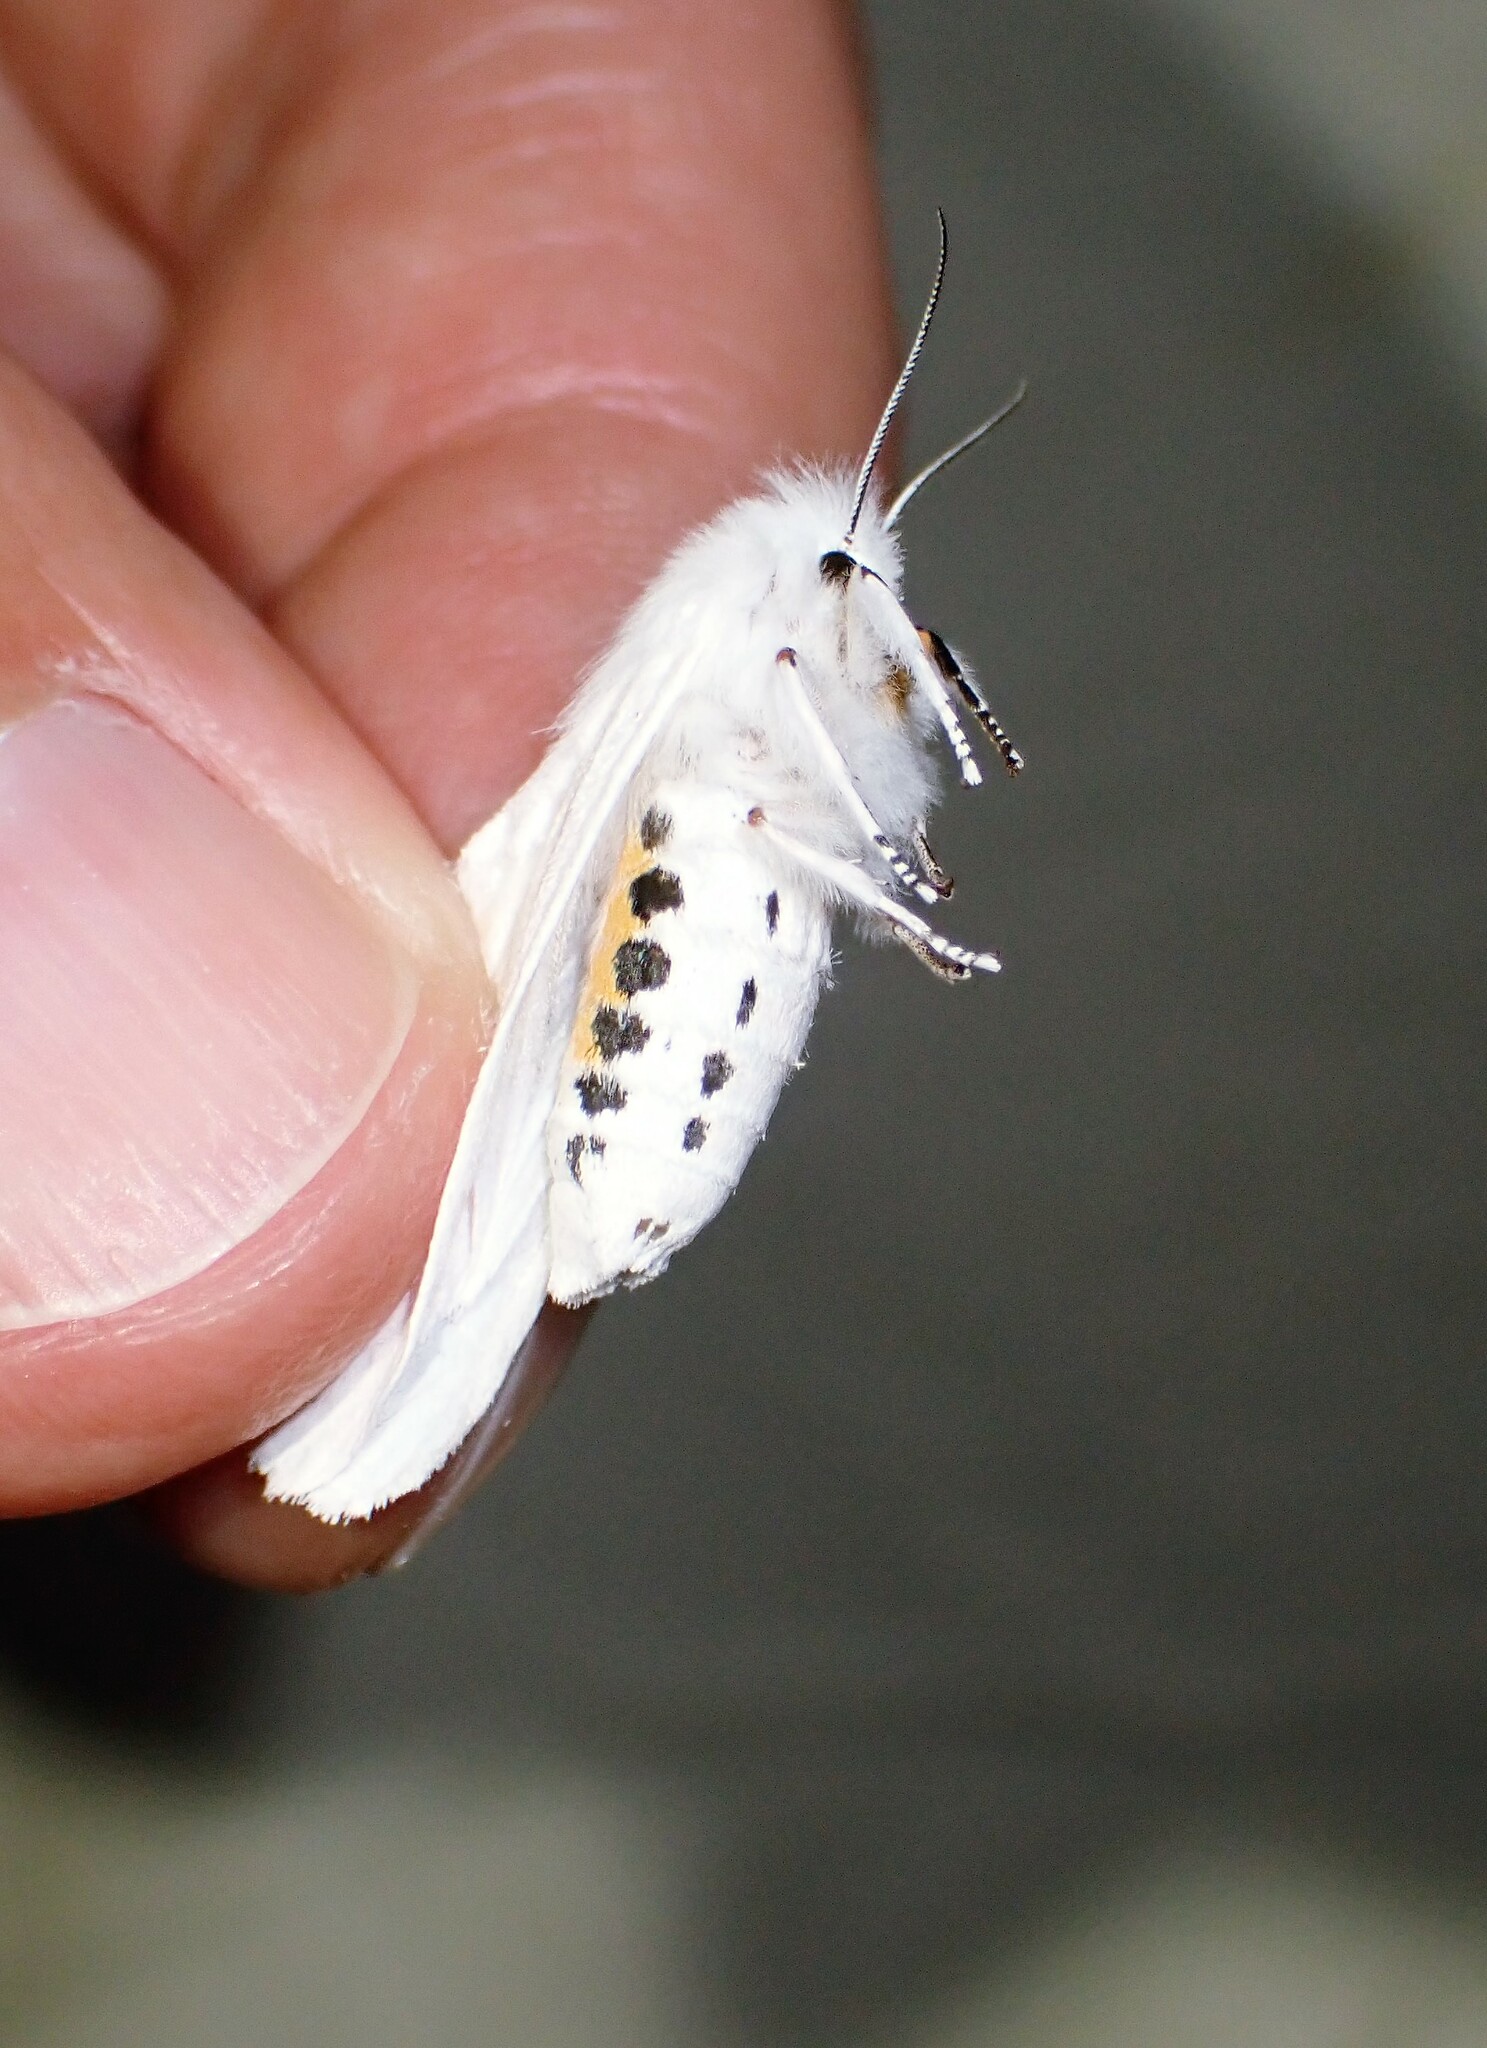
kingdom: Animalia
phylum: Arthropoda
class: Insecta
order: Lepidoptera
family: Erebidae
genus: Spilosoma
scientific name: Spilosoma virginica
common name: Virginia tiger moth
